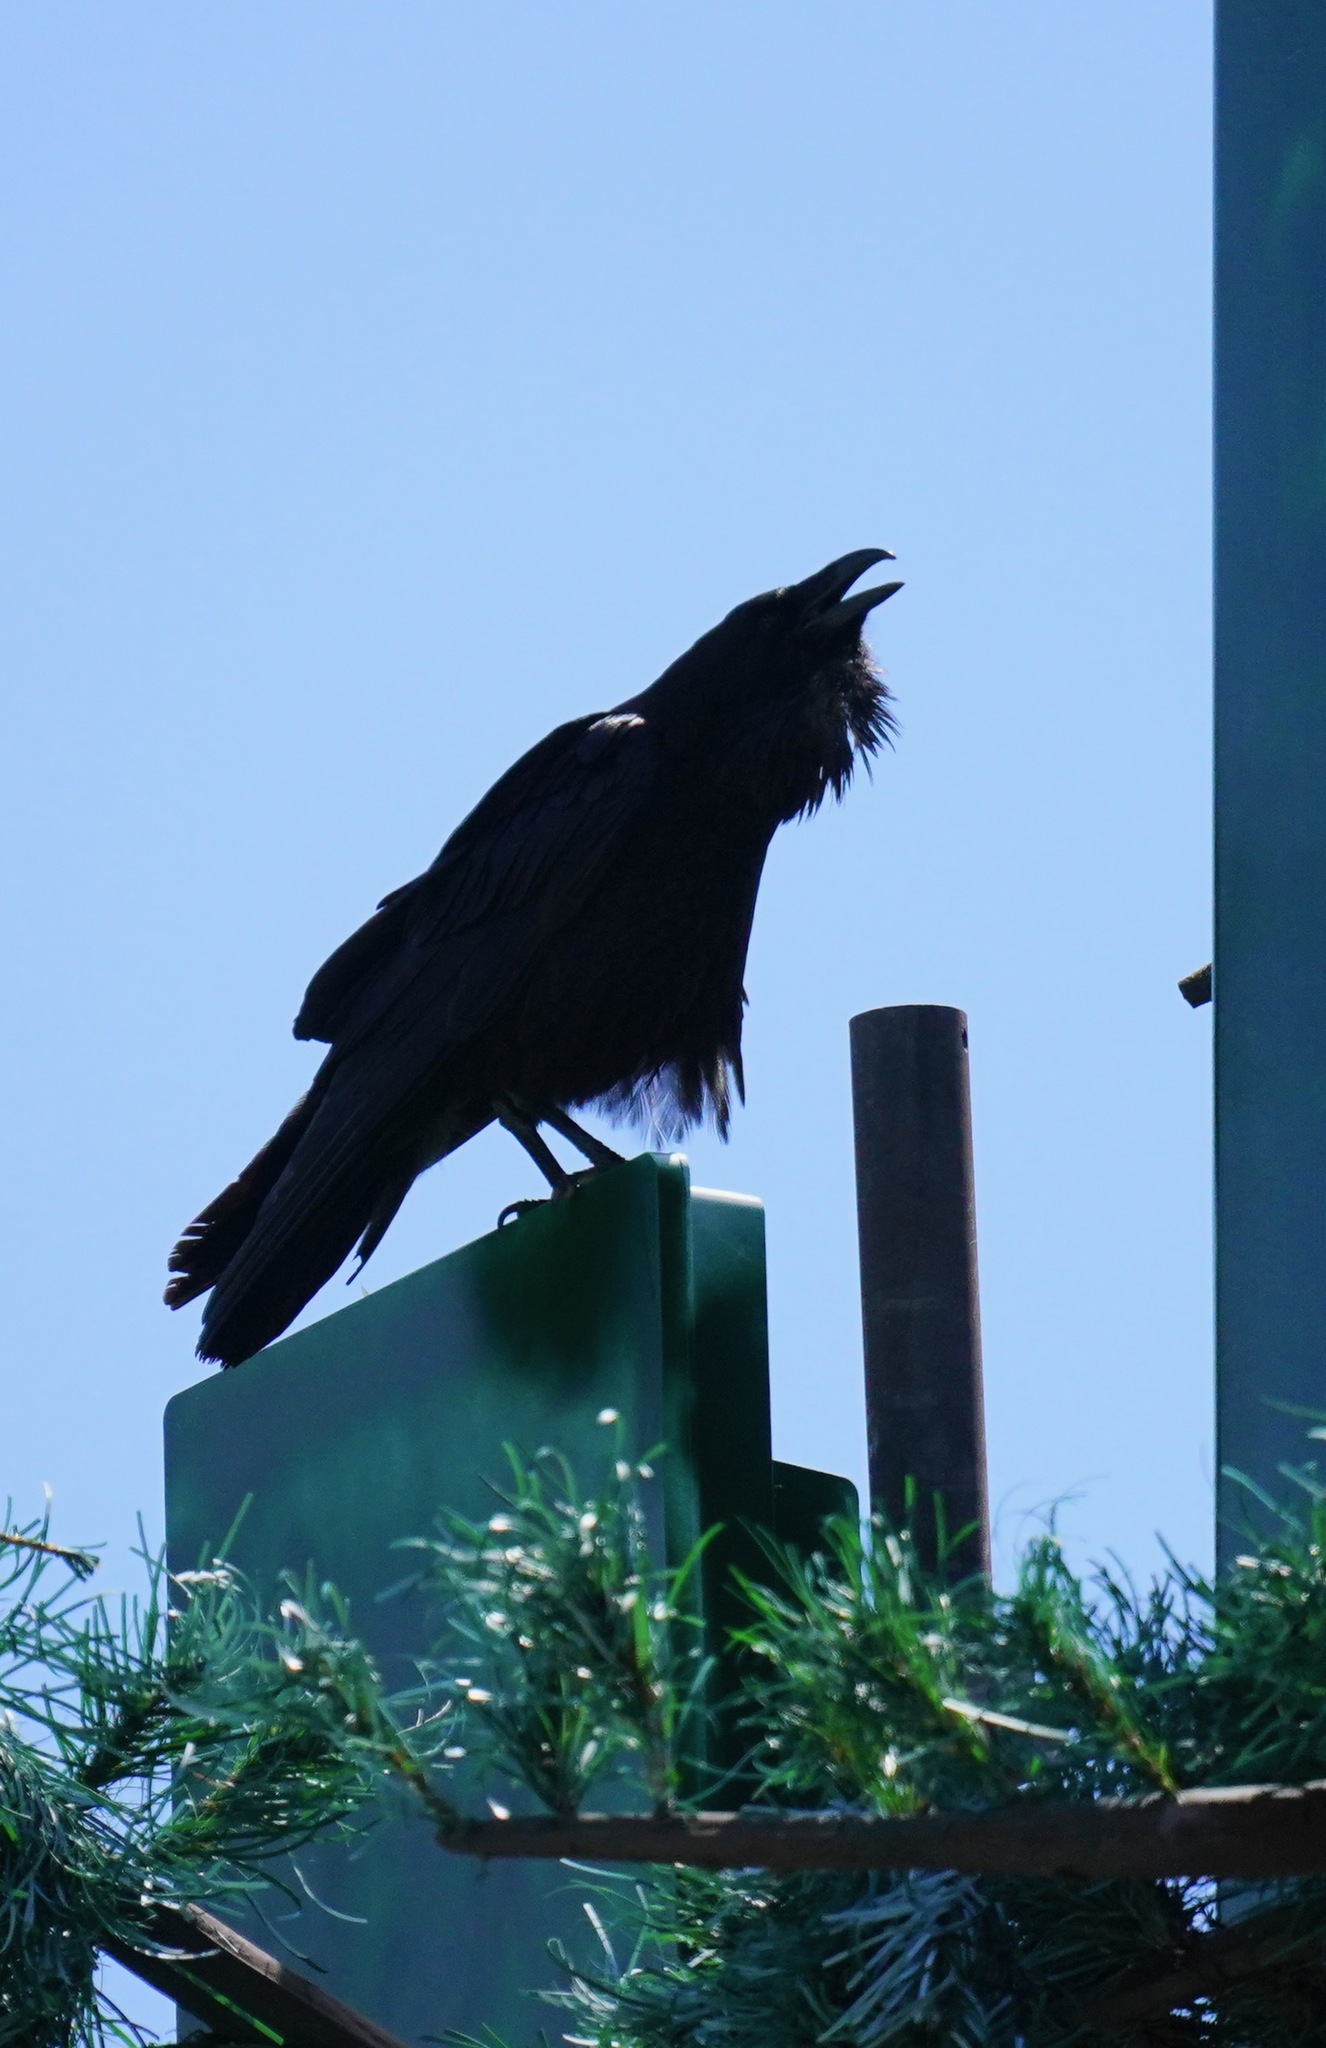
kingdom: Animalia
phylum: Chordata
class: Aves
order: Passeriformes
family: Corvidae
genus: Corvus
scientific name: Corvus corax
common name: Common raven
